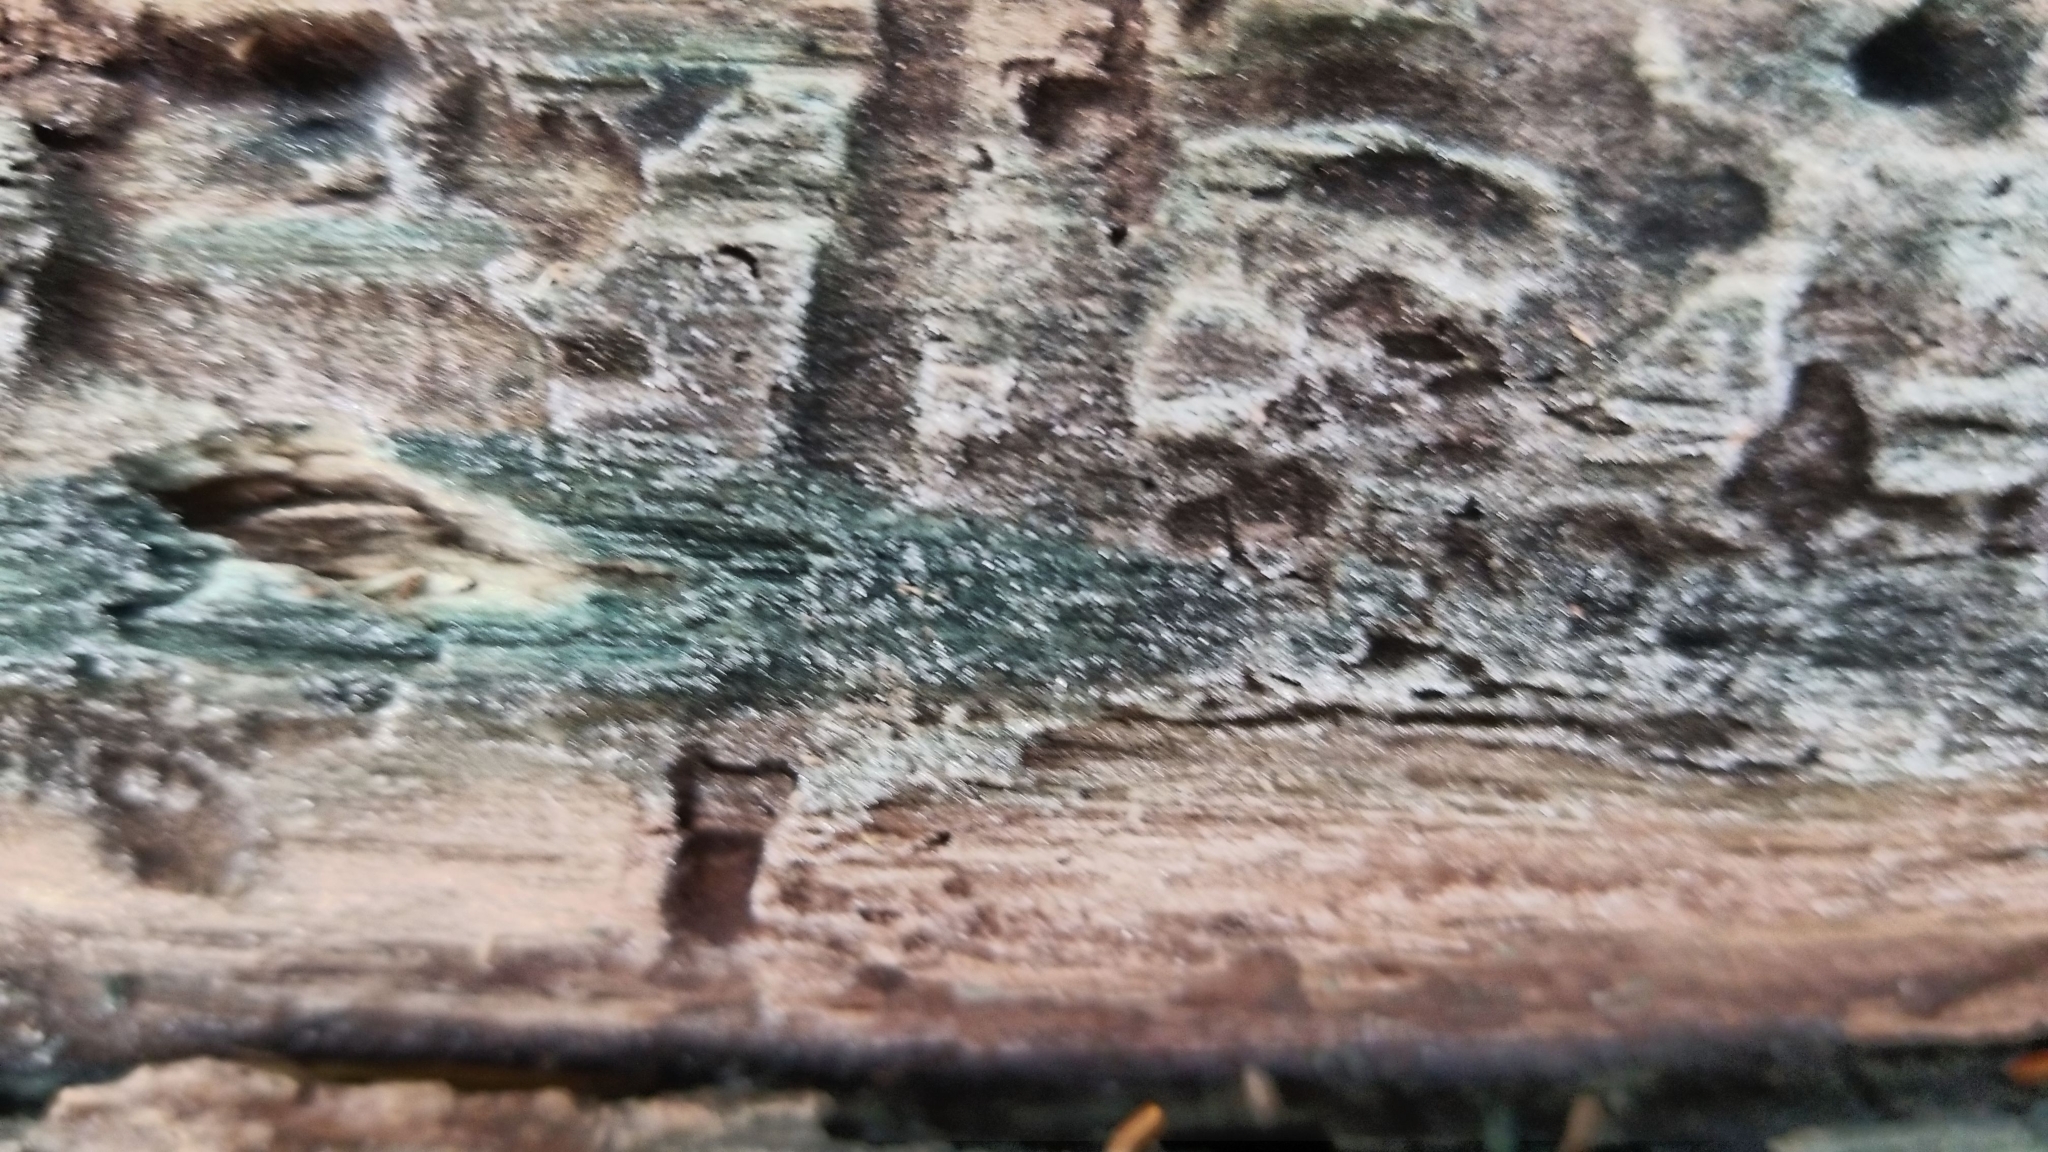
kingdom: Fungi
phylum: Ascomycota
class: Leotiomycetes
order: Helotiales
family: Chlorociboriaceae
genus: Chlorociboria
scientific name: Chlorociboria
